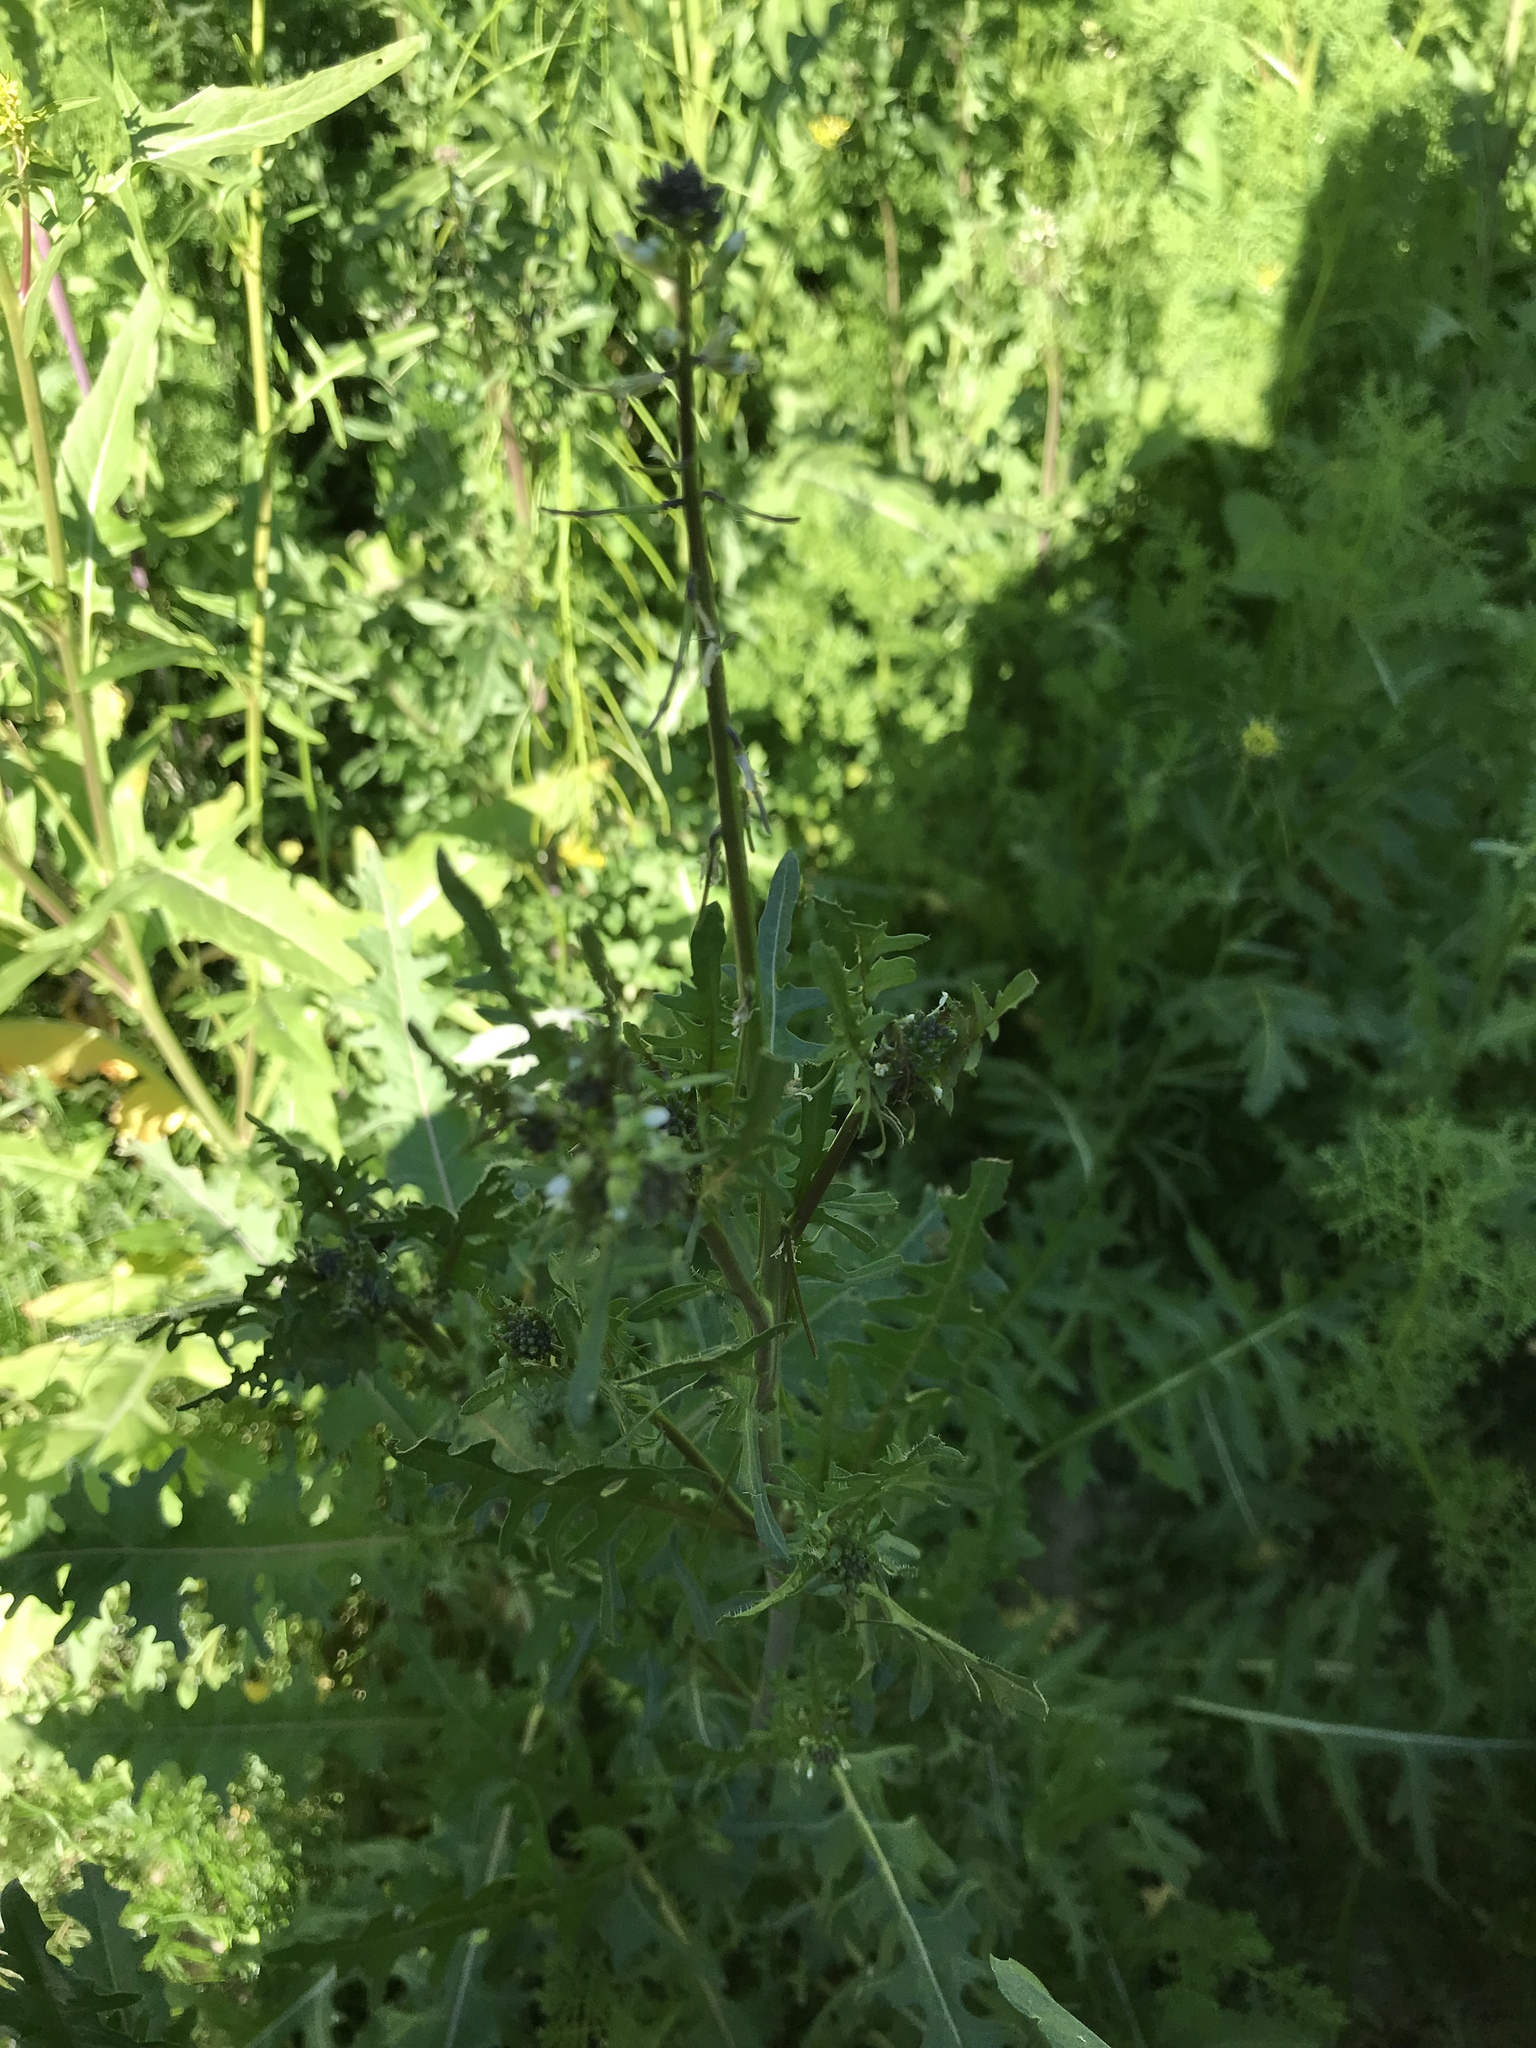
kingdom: Plantae
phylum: Tracheophyta
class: Magnoliopsida
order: Brassicales
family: Brassicaceae
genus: Streptanthus
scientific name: Streptanthus lasiophyllus
